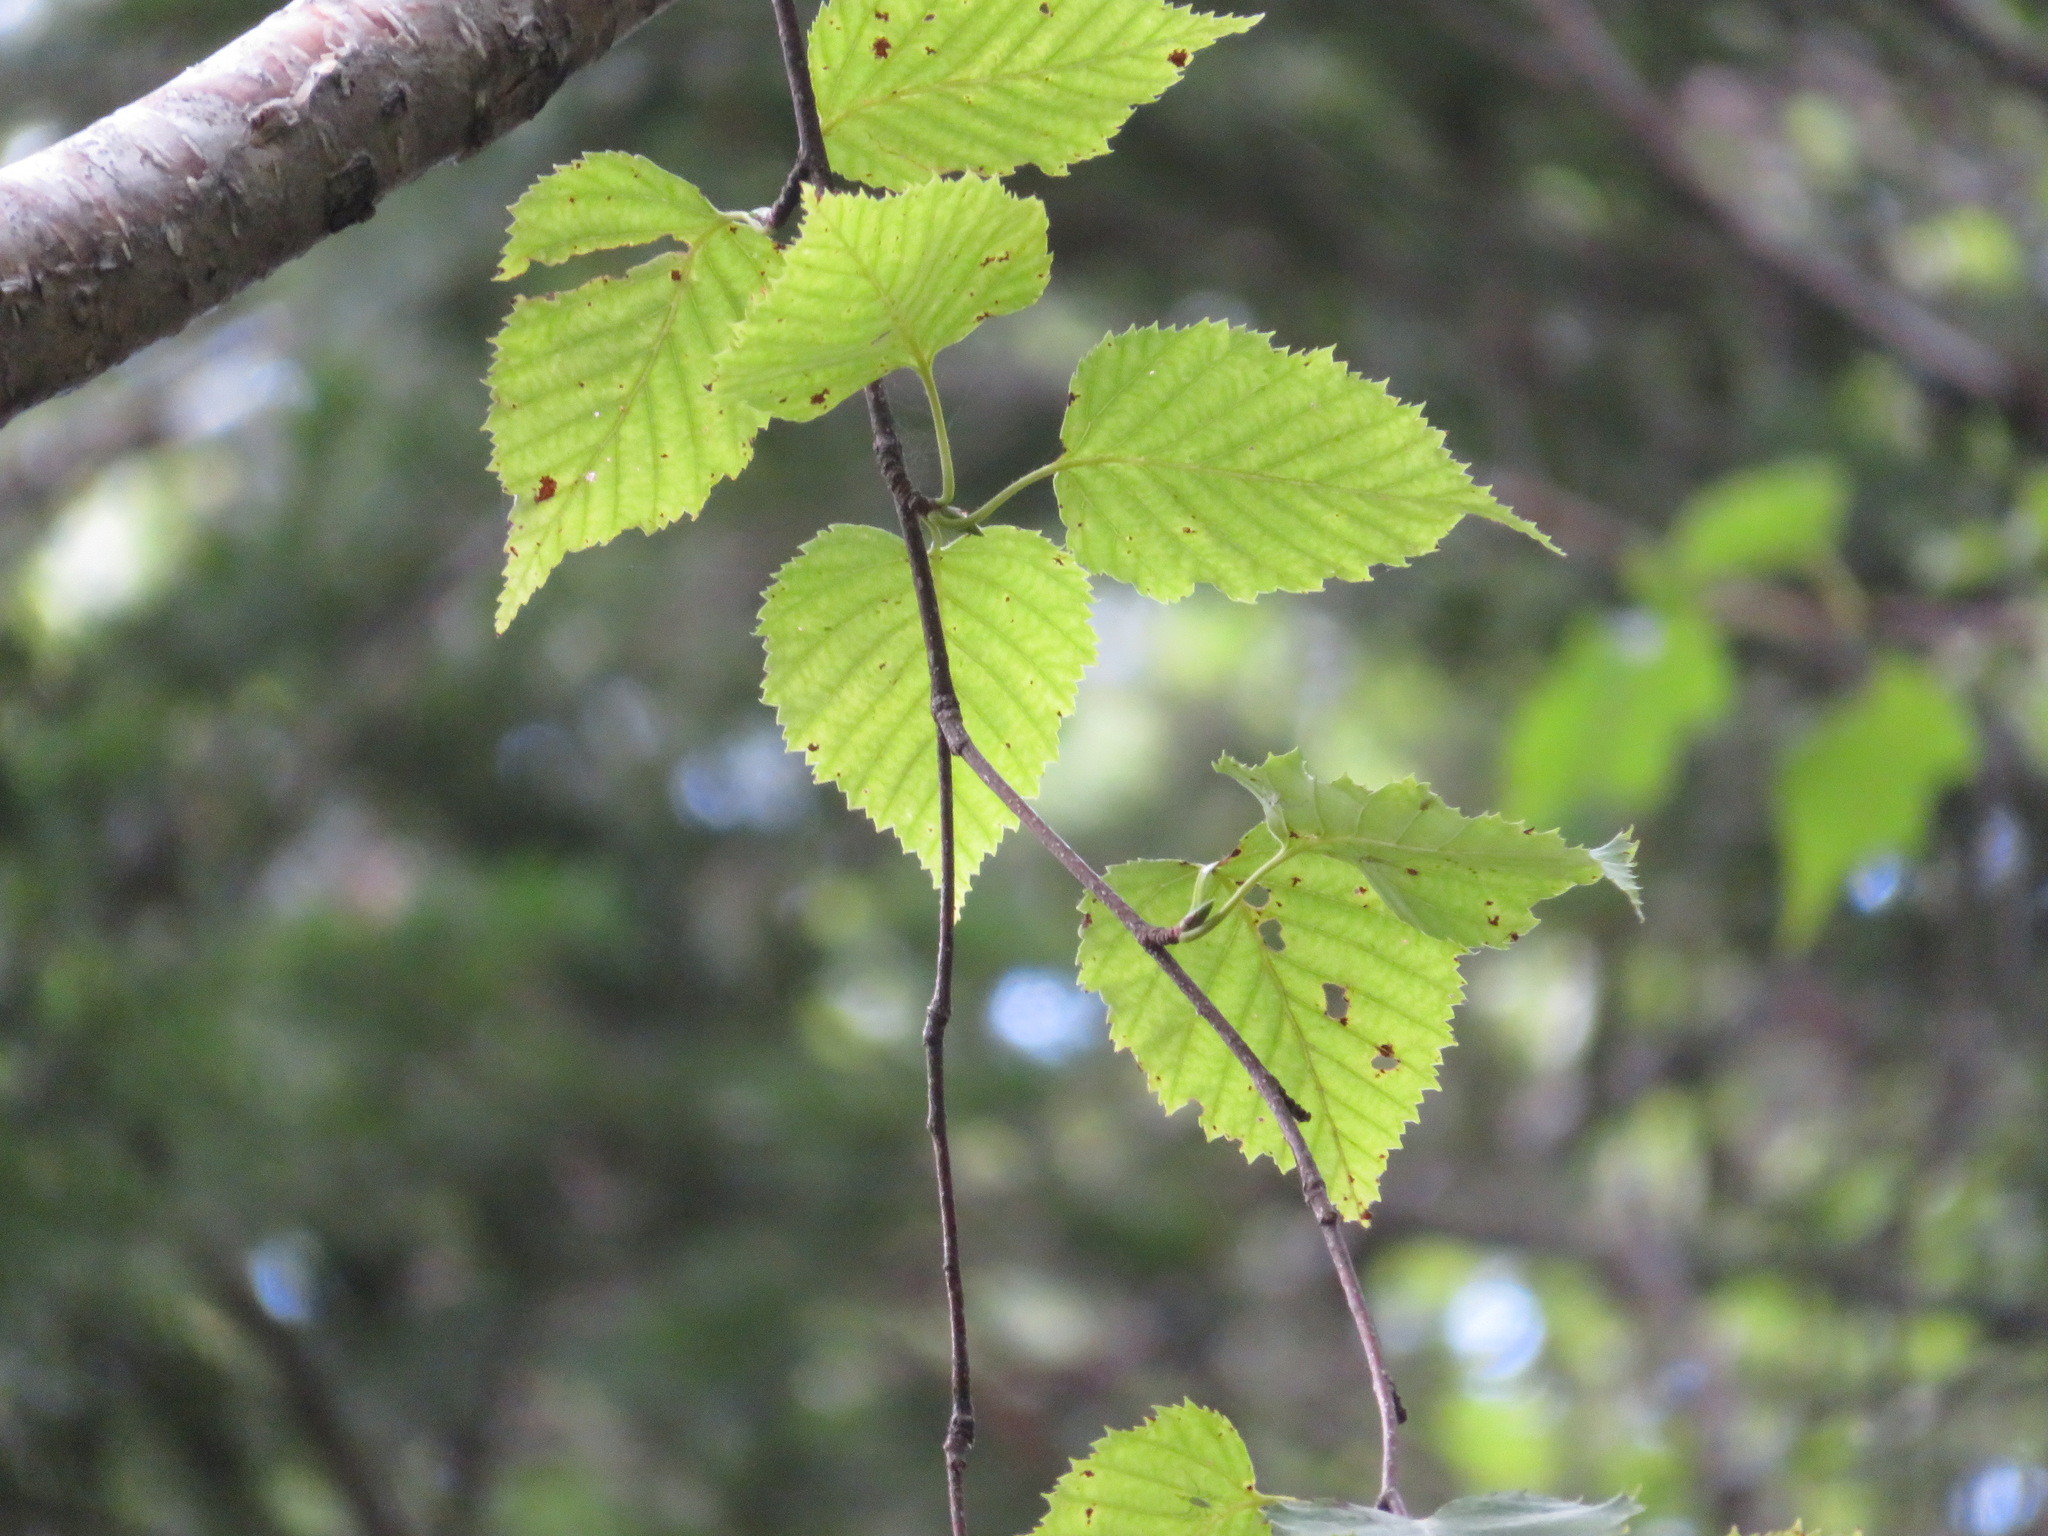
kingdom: Plantae
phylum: Tracheophyta
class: Magnoliopsida
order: Fagales
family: Betulaceae
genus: Betula
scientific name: Betula ermanii
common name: Erman's birch
